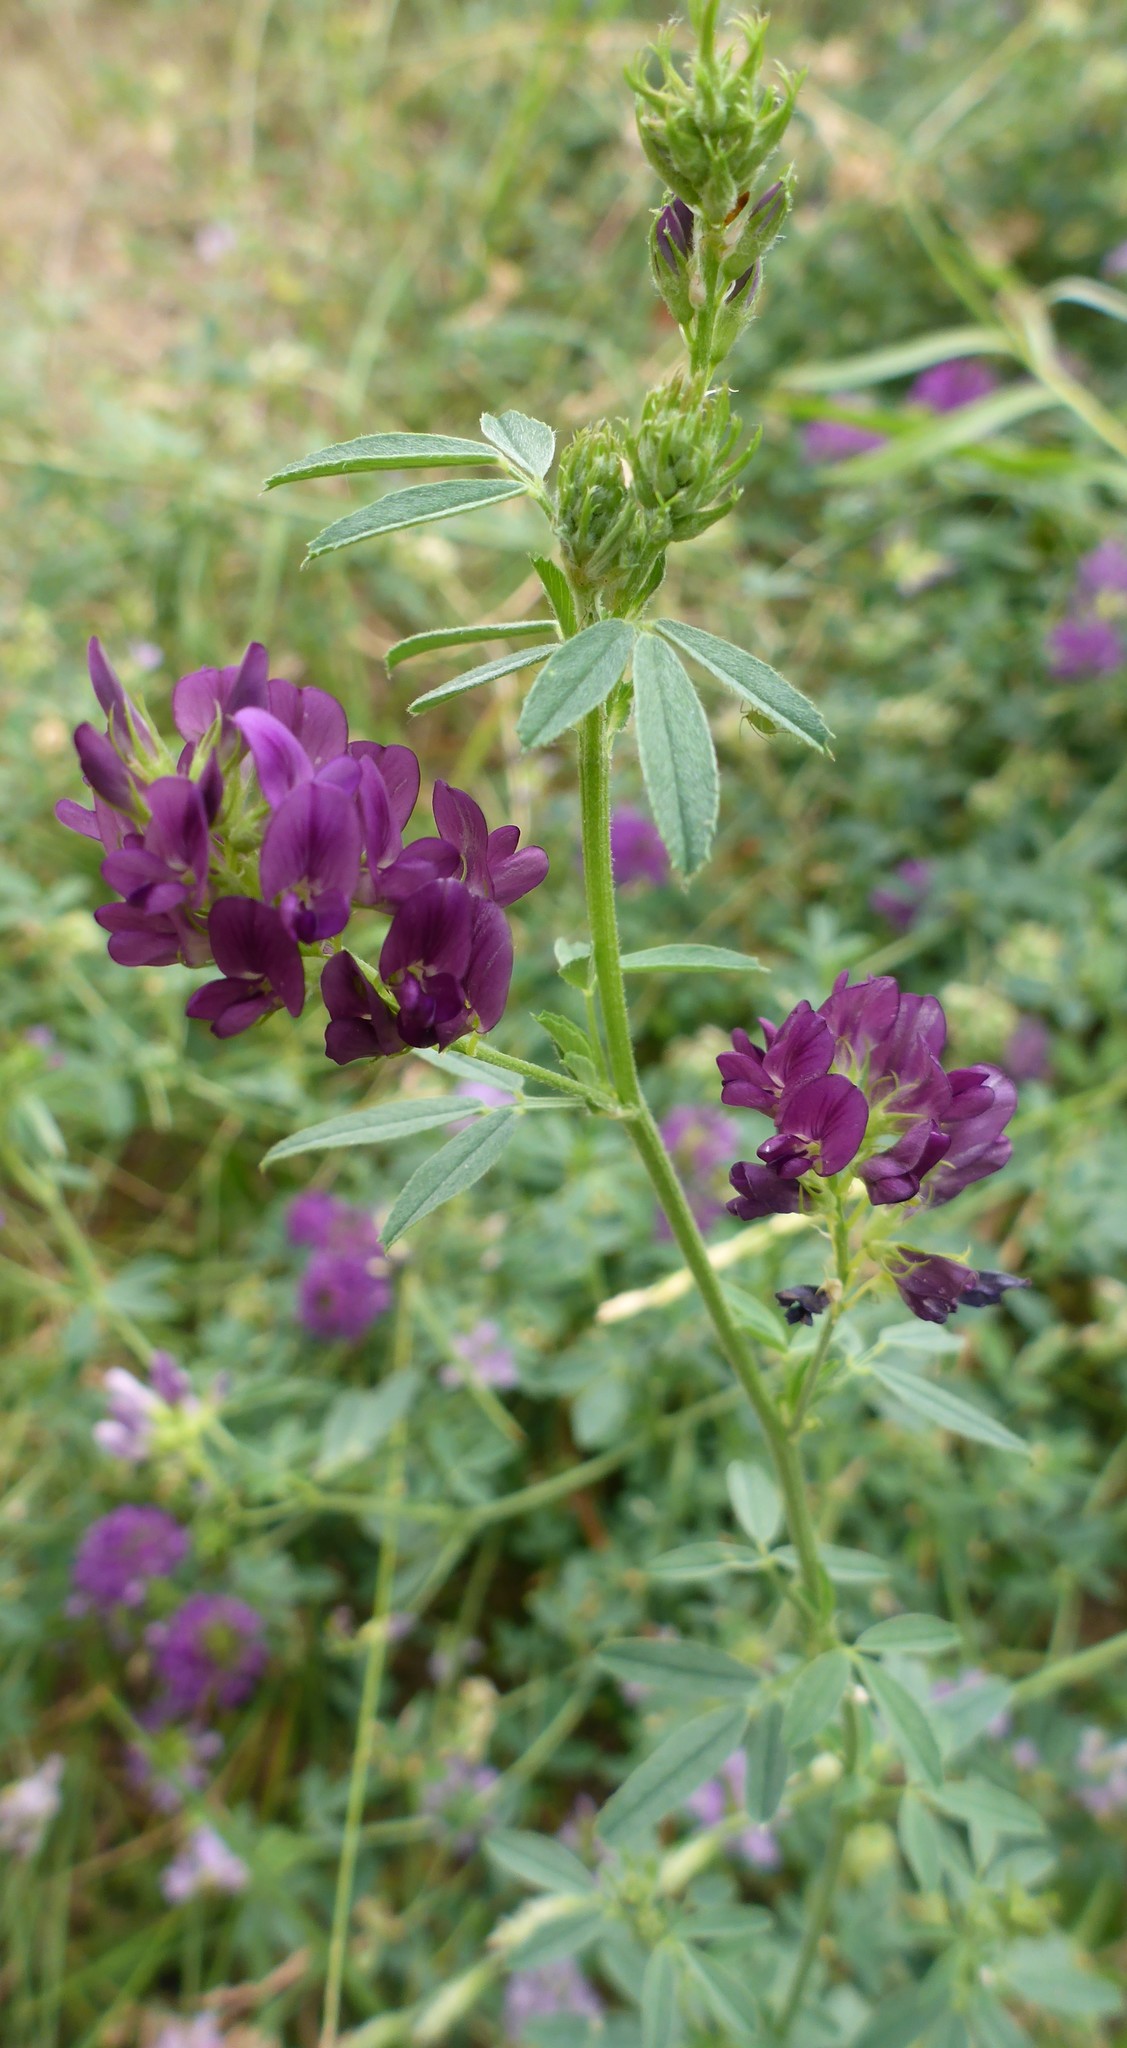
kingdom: Plantae
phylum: Tracheophyta
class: Magnoliopsida
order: Fabales
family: Fabaceae
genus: Medicago
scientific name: Medicago sativa
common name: Alfalfa
